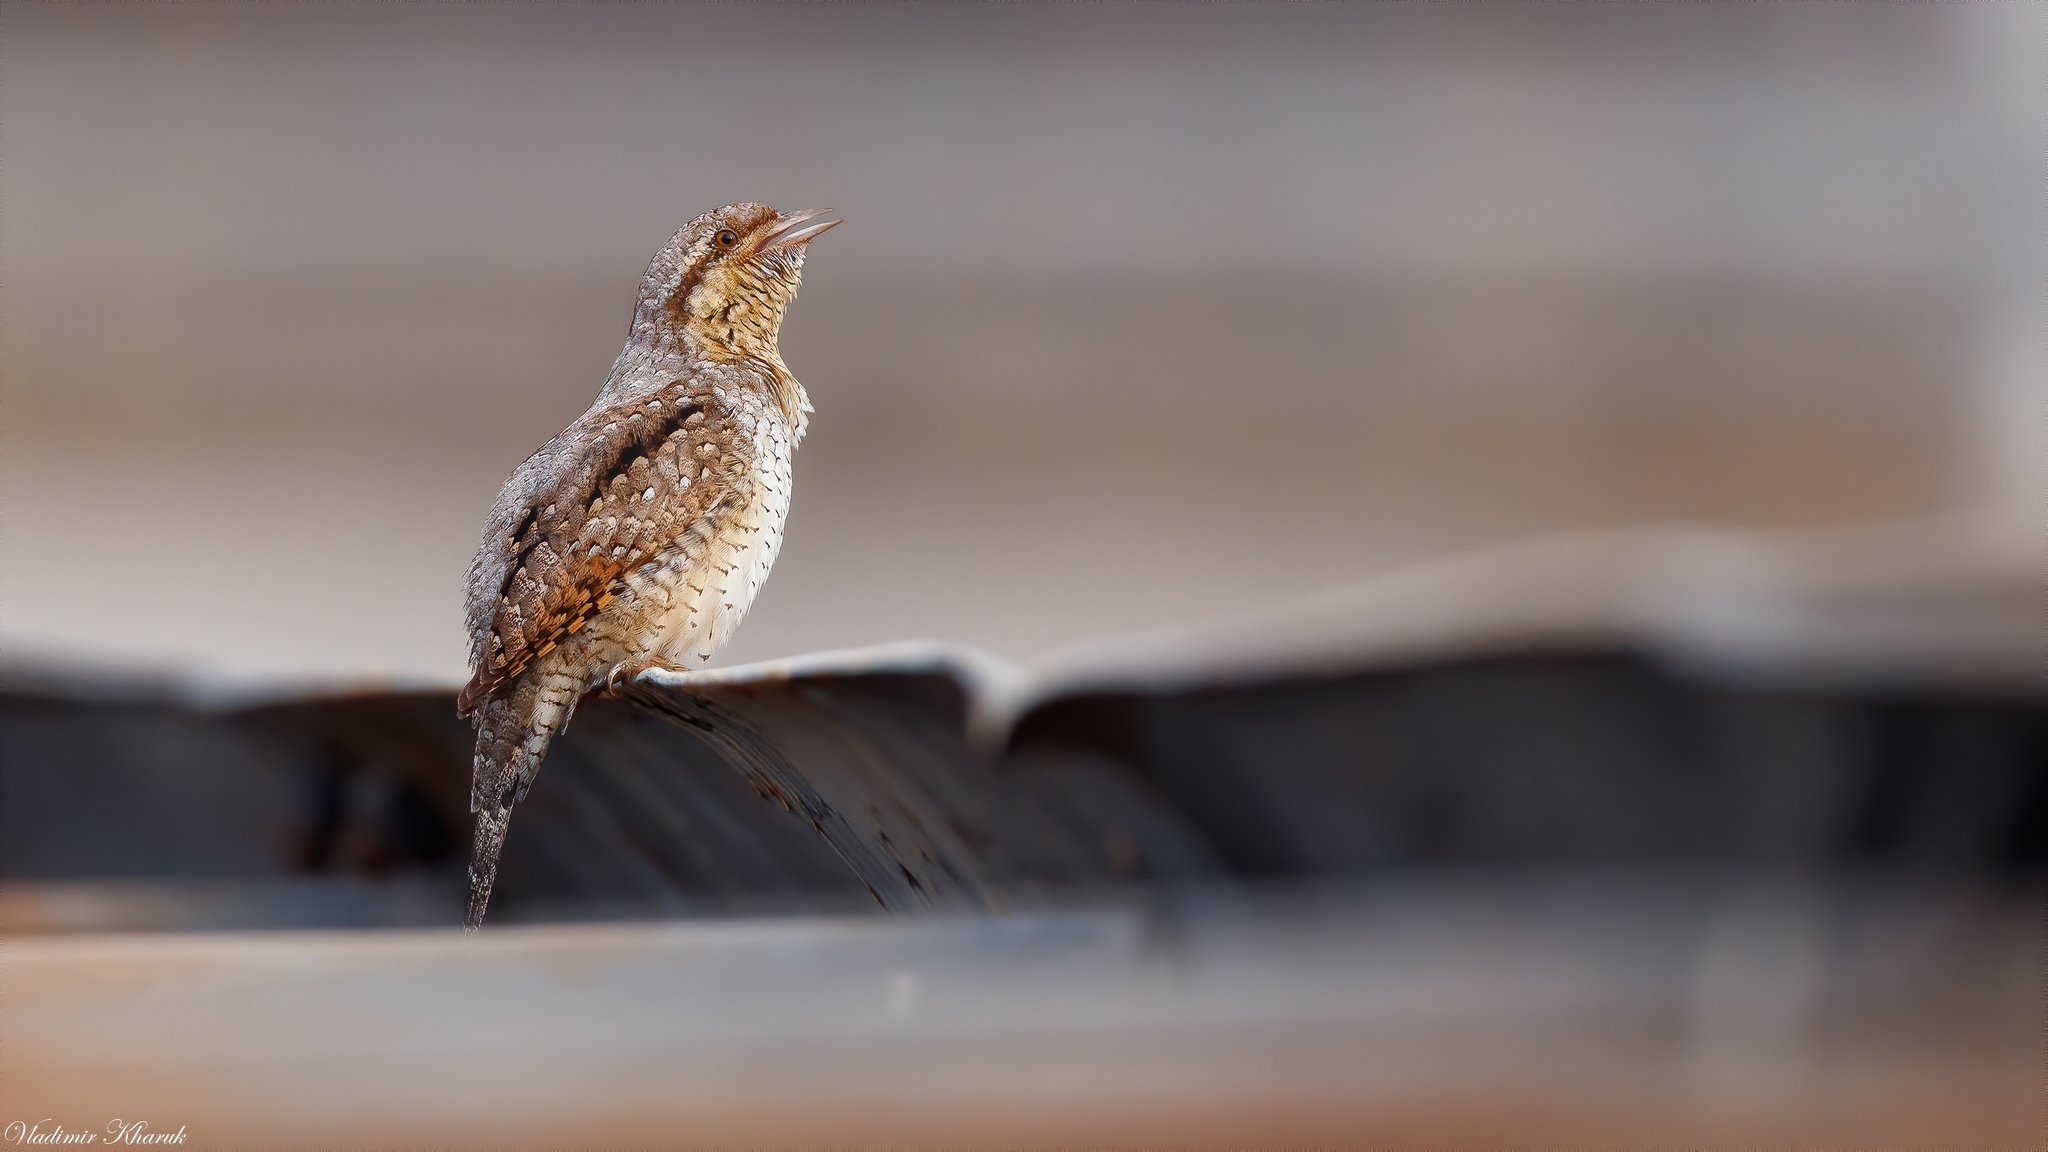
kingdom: Animalia
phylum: Chordata
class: Aves
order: Piciformes
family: Picidae
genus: Jynx
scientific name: Jynx torquilla
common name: Eurasian wryneck
